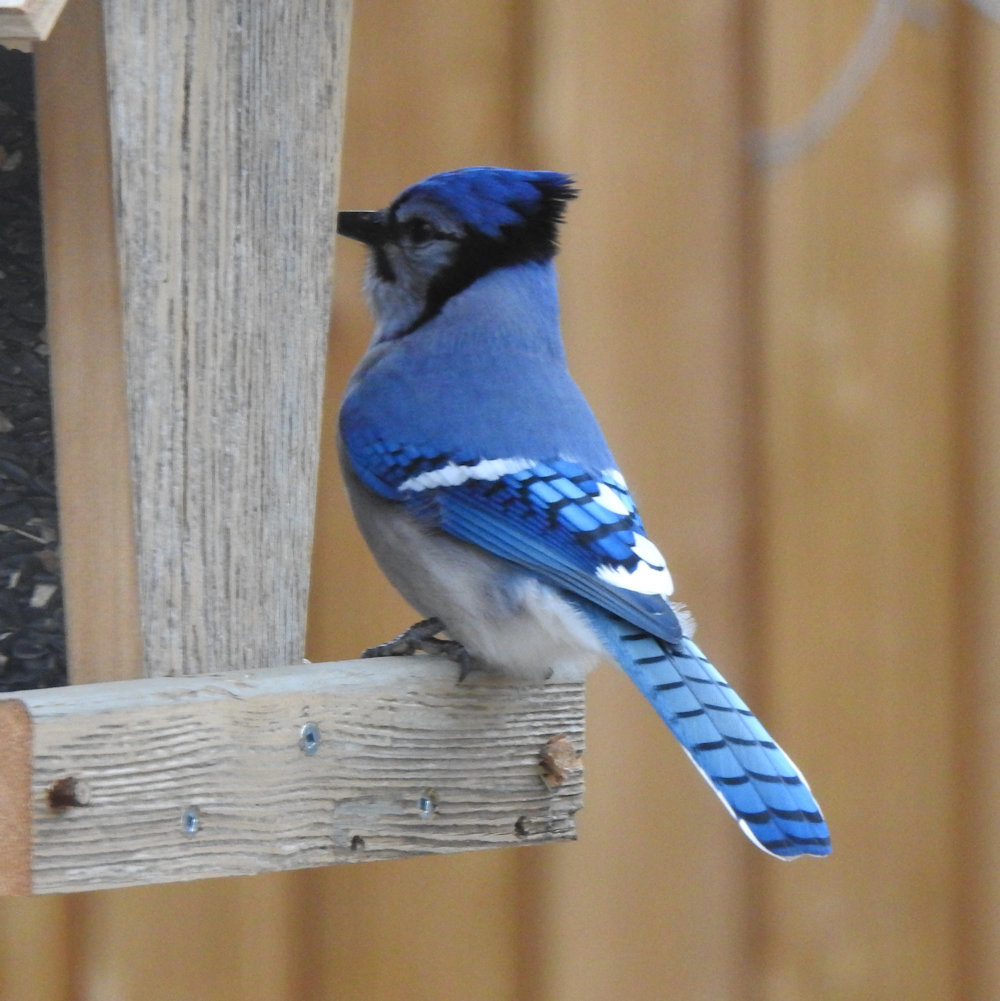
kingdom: Animalia
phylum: Chordata
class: Aves
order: Passeriformes
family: Corvidae
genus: Cyanocitta
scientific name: Cyanocitta cristata
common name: Blue jay
